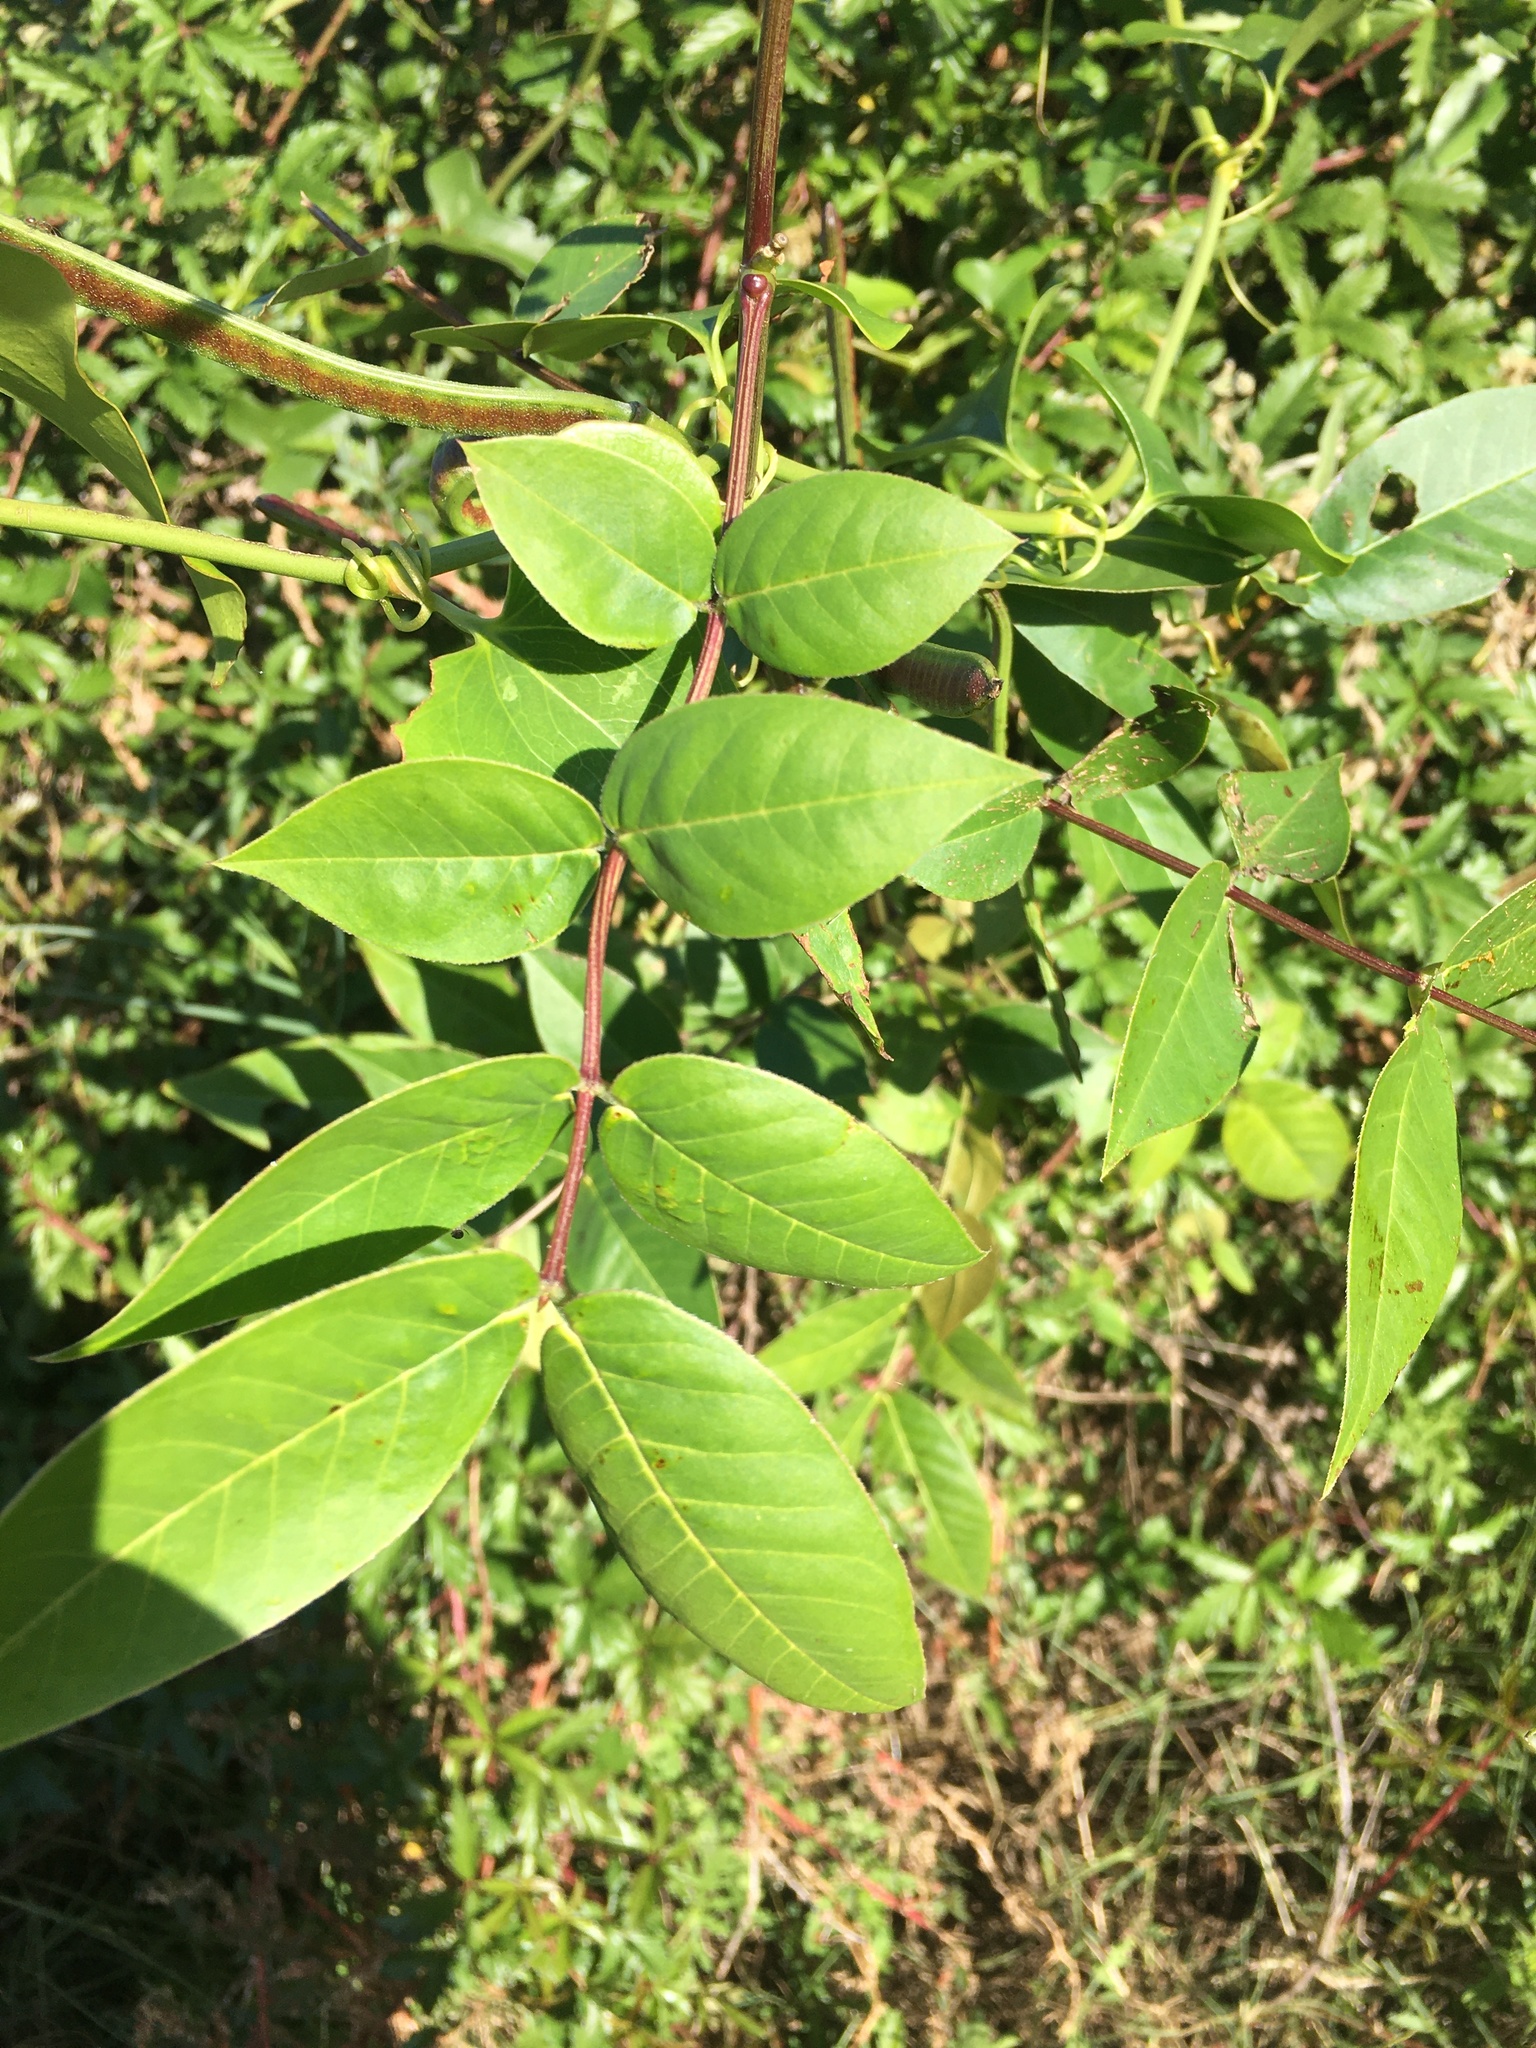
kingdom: Plantae
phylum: Tracheophyta
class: Magnoliopsida
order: Fabales
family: Fabaceae
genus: Senna
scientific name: Senna occidentalis
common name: Septicweed
